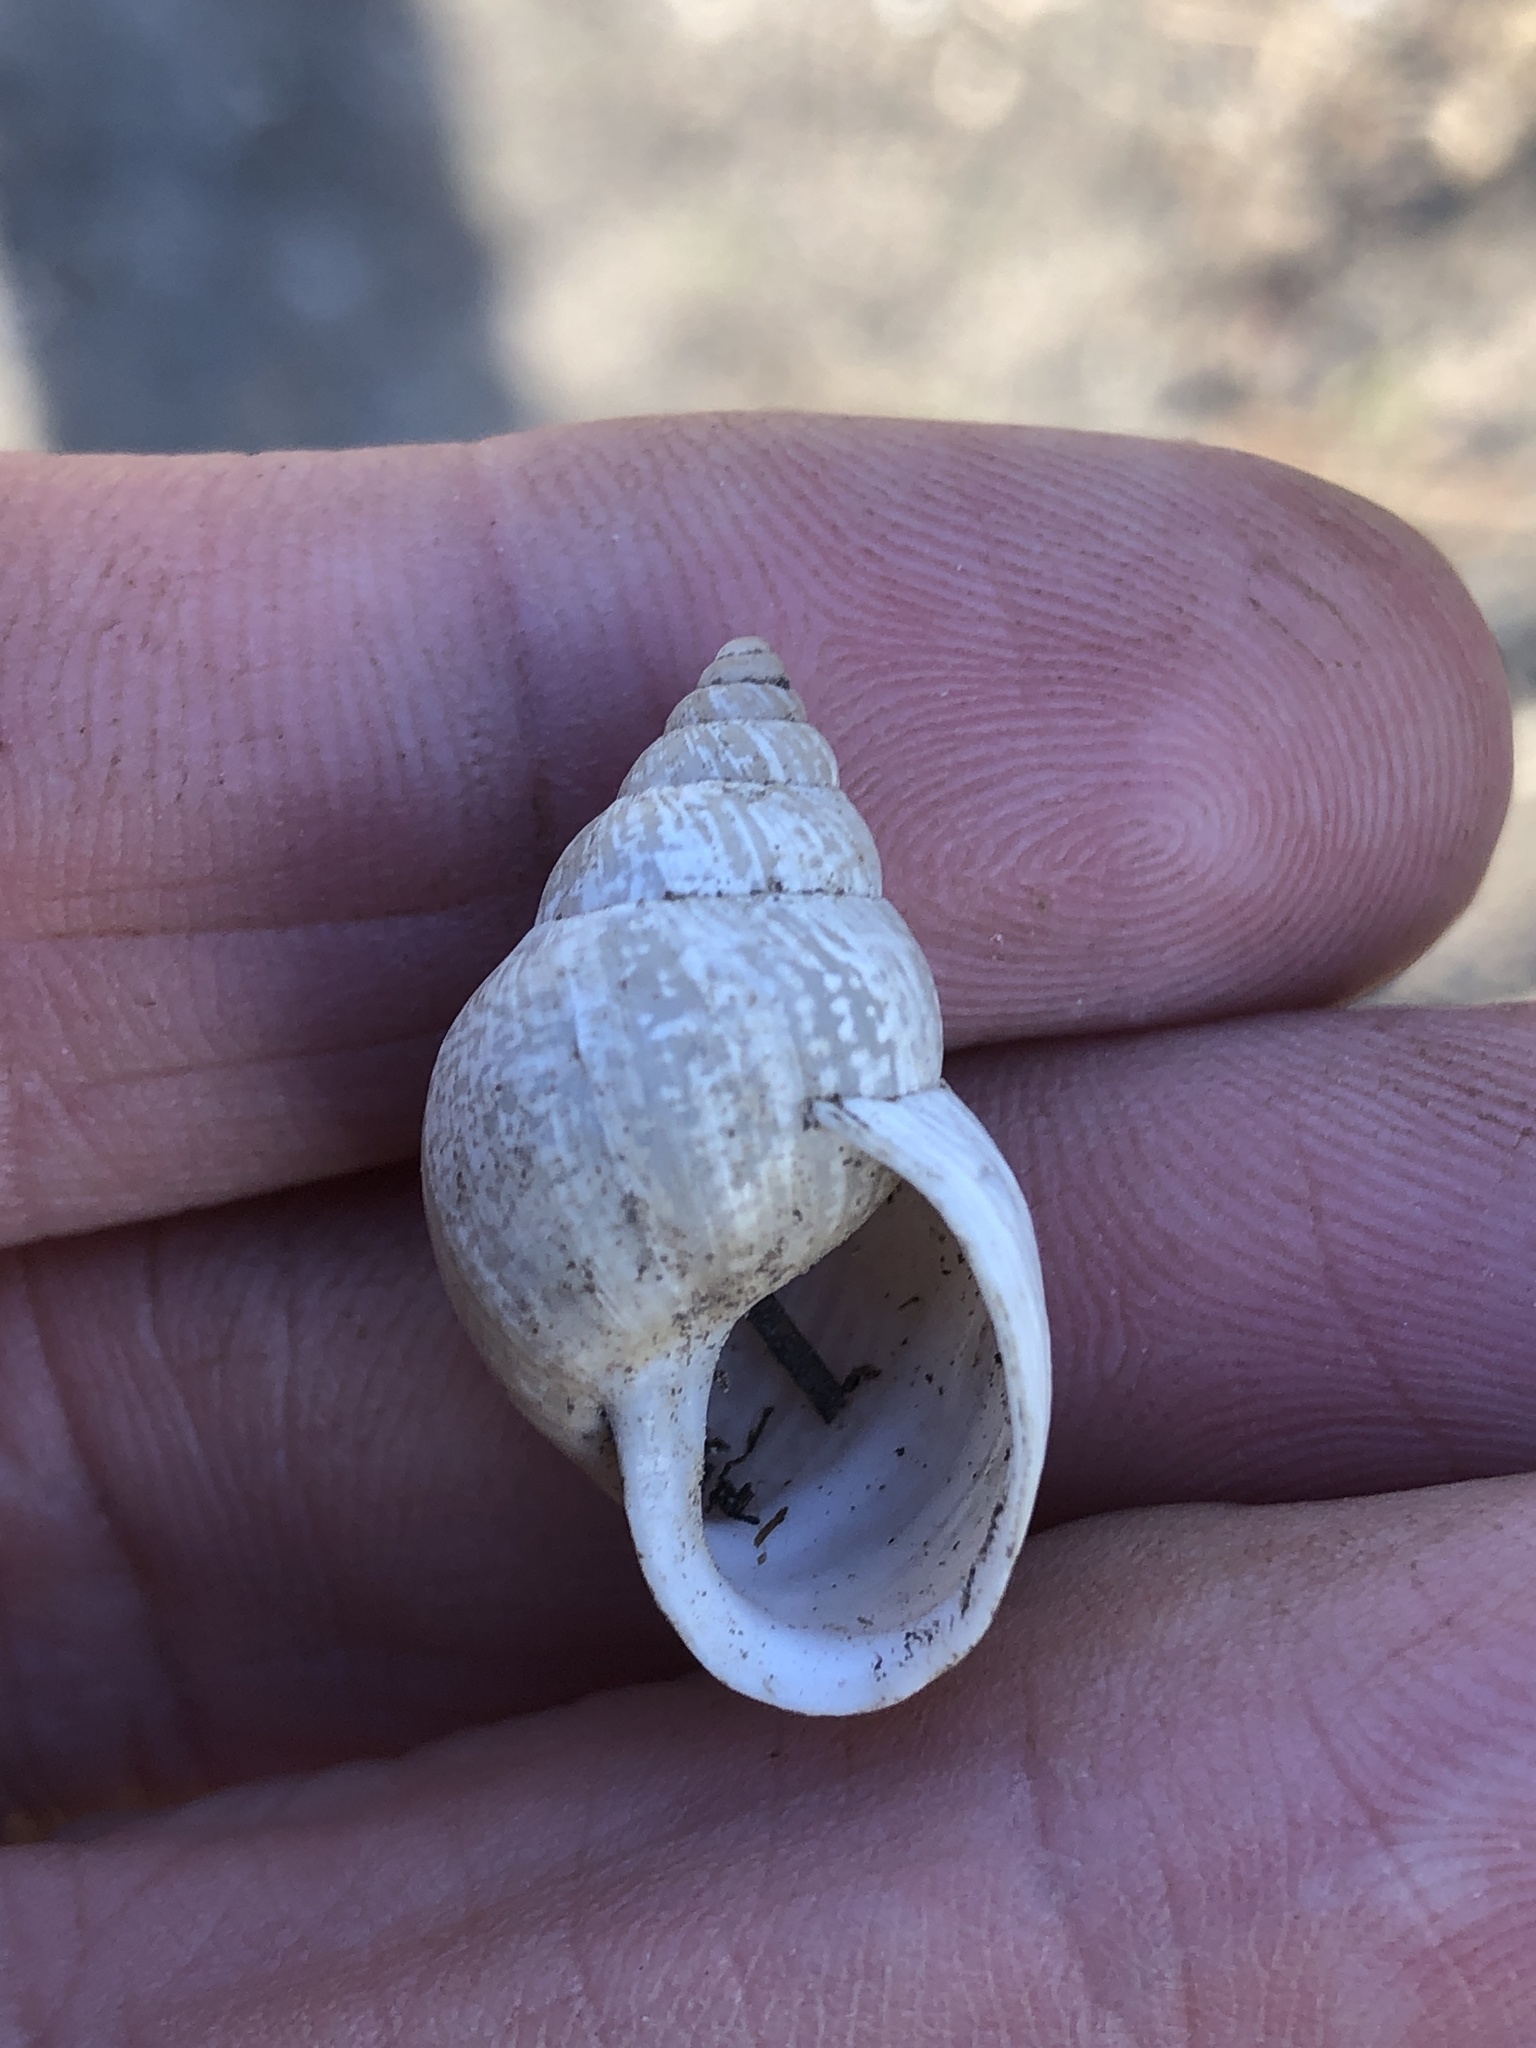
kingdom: Animalia
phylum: Mollusca
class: Gastropoda
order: Stylommatophora
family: Bulimulidae
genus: Rabdotus
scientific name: Rabdotus mooreanus
